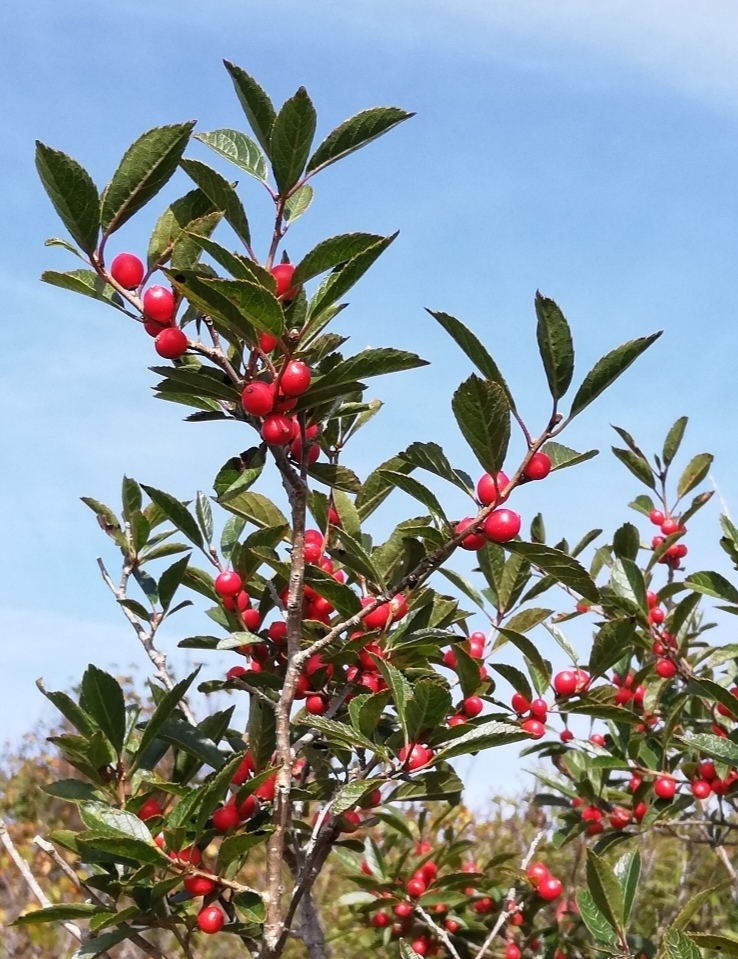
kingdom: Plantae
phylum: Tracheophyta
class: Magnoliopsida
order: Aquifoliales
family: Aquifoliaceae
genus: Ilex
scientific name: Ilex verticillata
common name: Virginia winterberry
